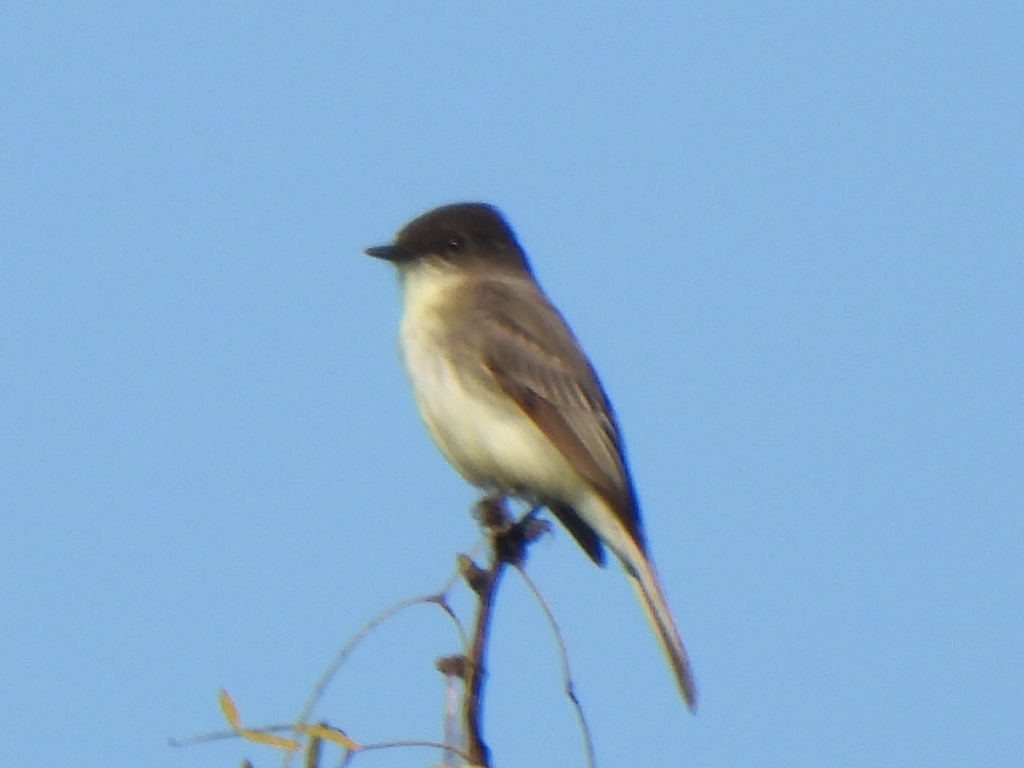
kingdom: Animalia
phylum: Chordata
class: Aves
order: Passeriformes
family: Tyrannidae
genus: Sayornis
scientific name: Sayornis phoebe
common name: Eastern phoebe
